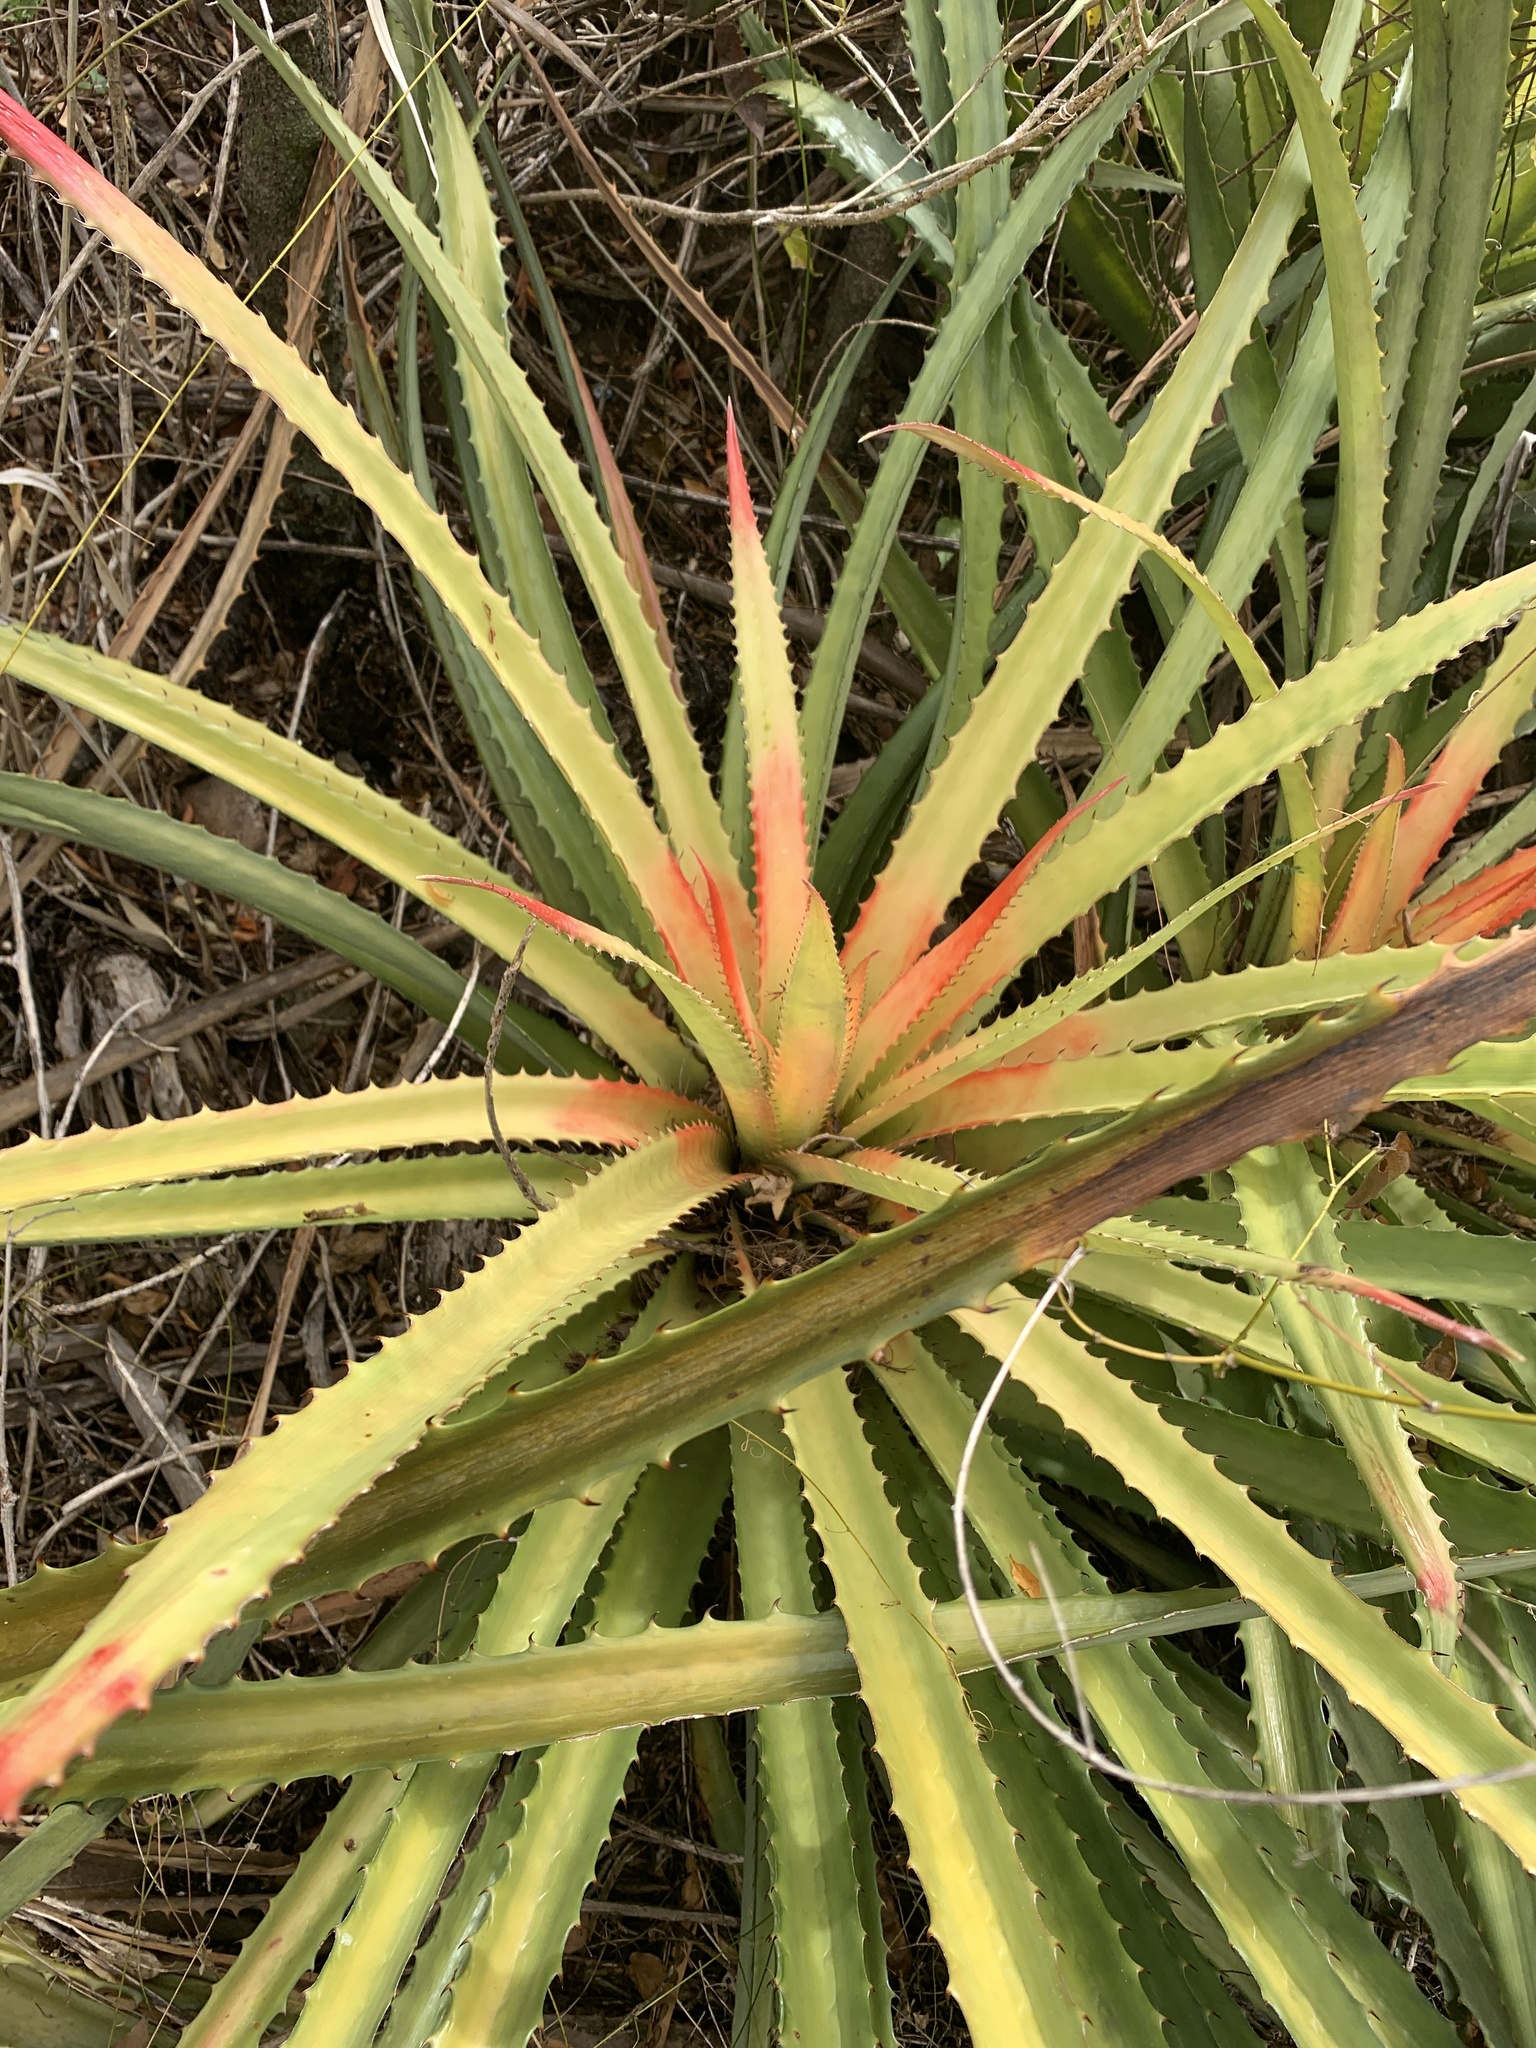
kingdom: Plantae
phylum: Tracheophyta
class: Liliopsida
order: Poales
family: Bromeliaceae
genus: Bromelia
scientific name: Bromelia pinguin
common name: Pinguin
